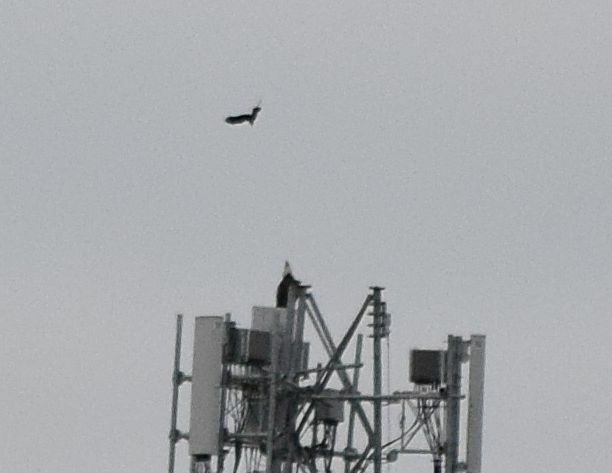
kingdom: Animalia
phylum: Chordata
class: Aves
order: Accipitriformes
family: Accipitridae
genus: Haliaeetus
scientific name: Haliaeetus leucocephalus
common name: Bald eagle
